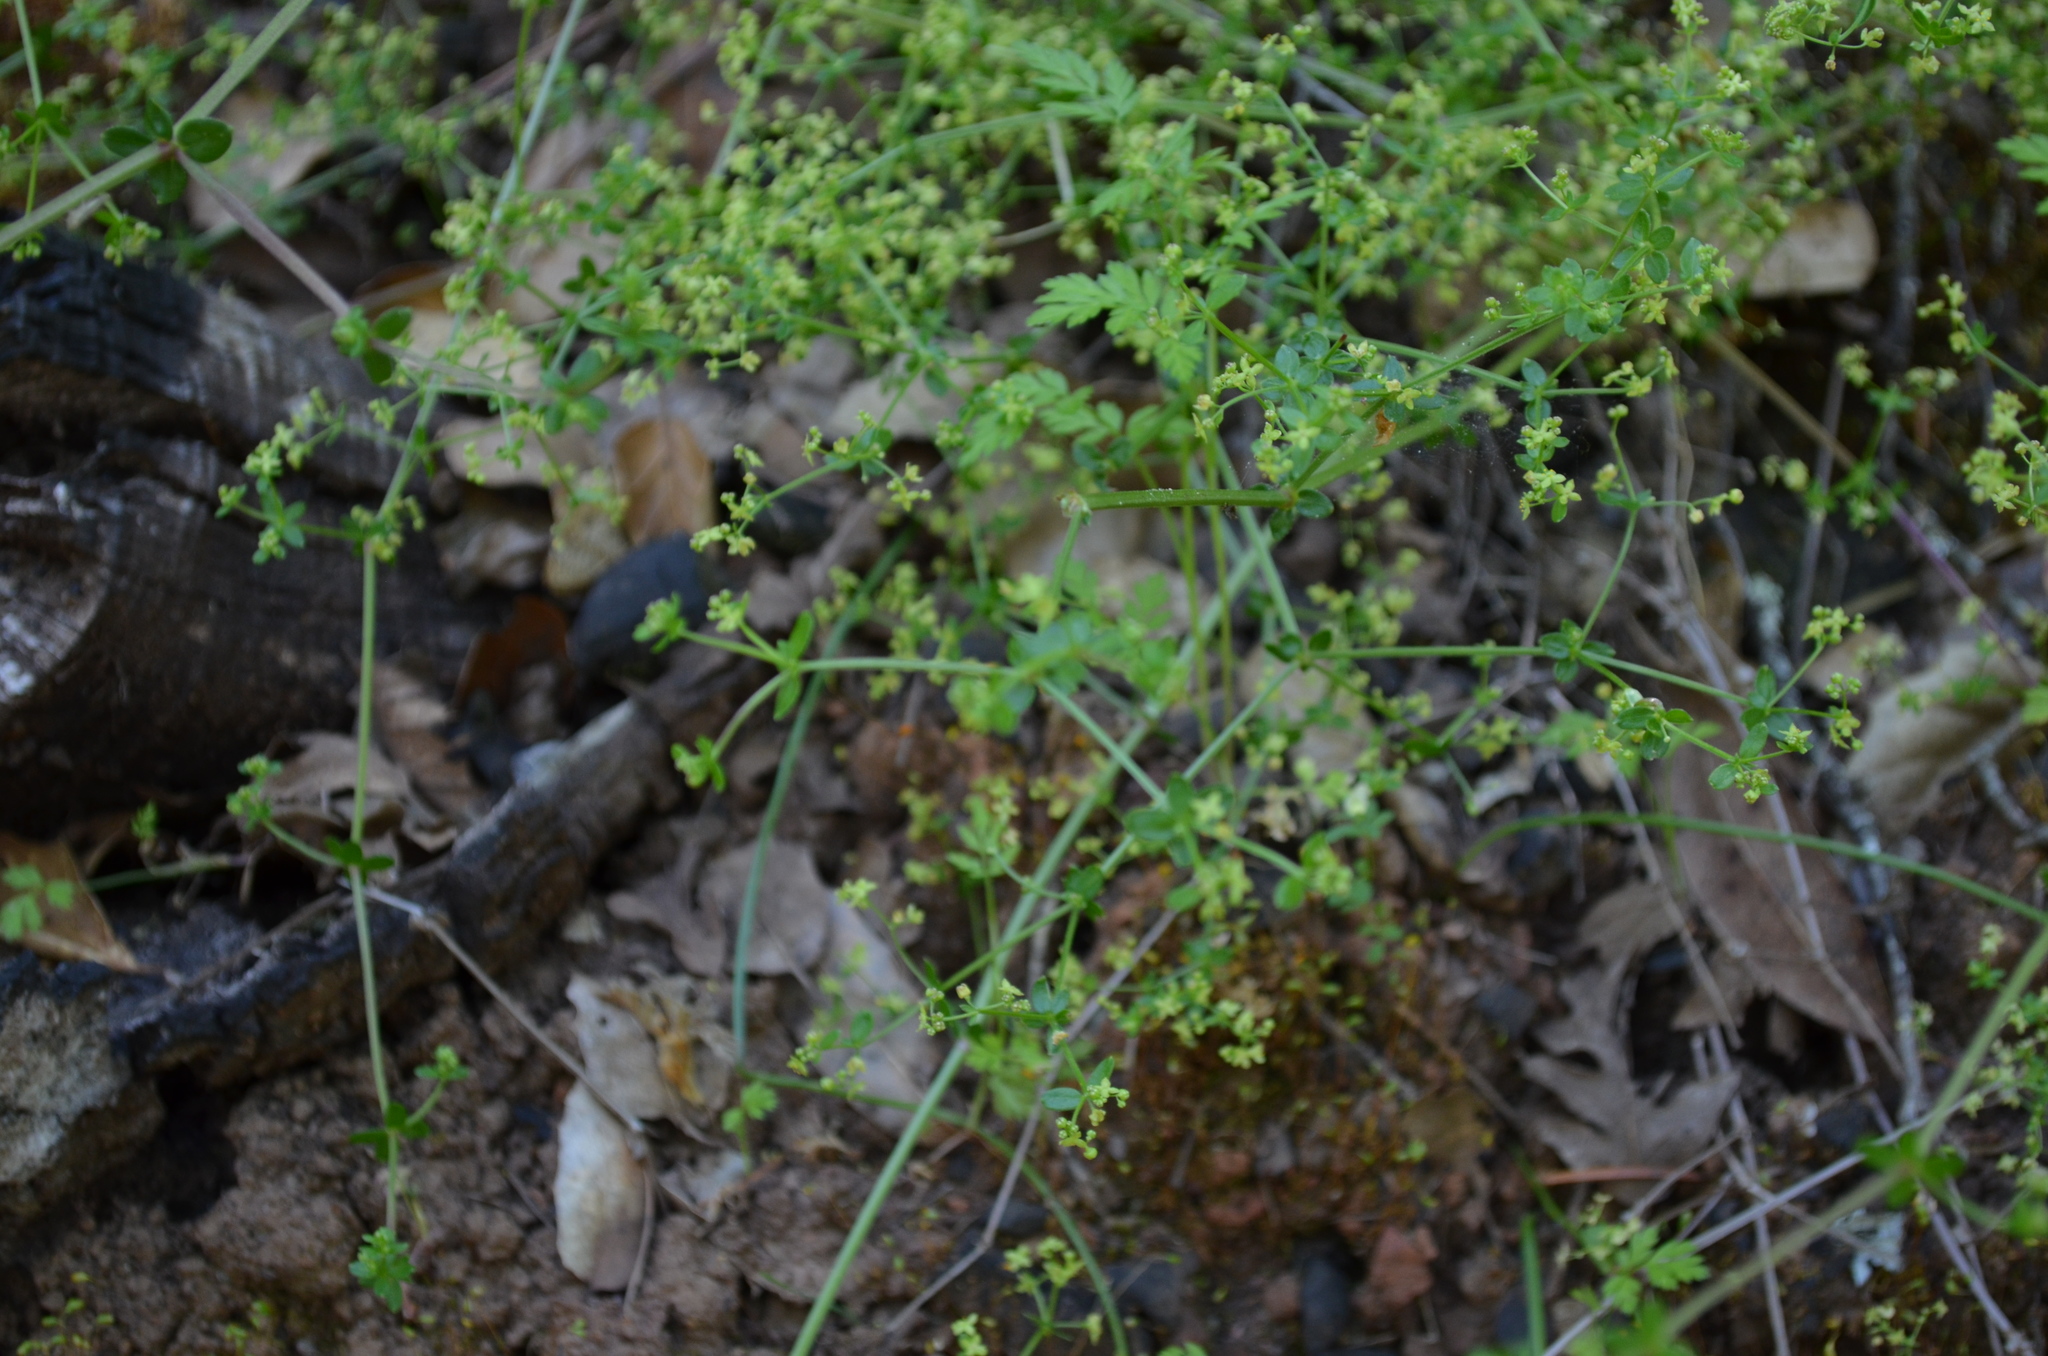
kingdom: Plantae
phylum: Tracheophyta
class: Magnoliopsida
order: Gentianales
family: Rubiaceae
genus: Galium
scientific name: Galium porrigens
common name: Climbing bedstraw
